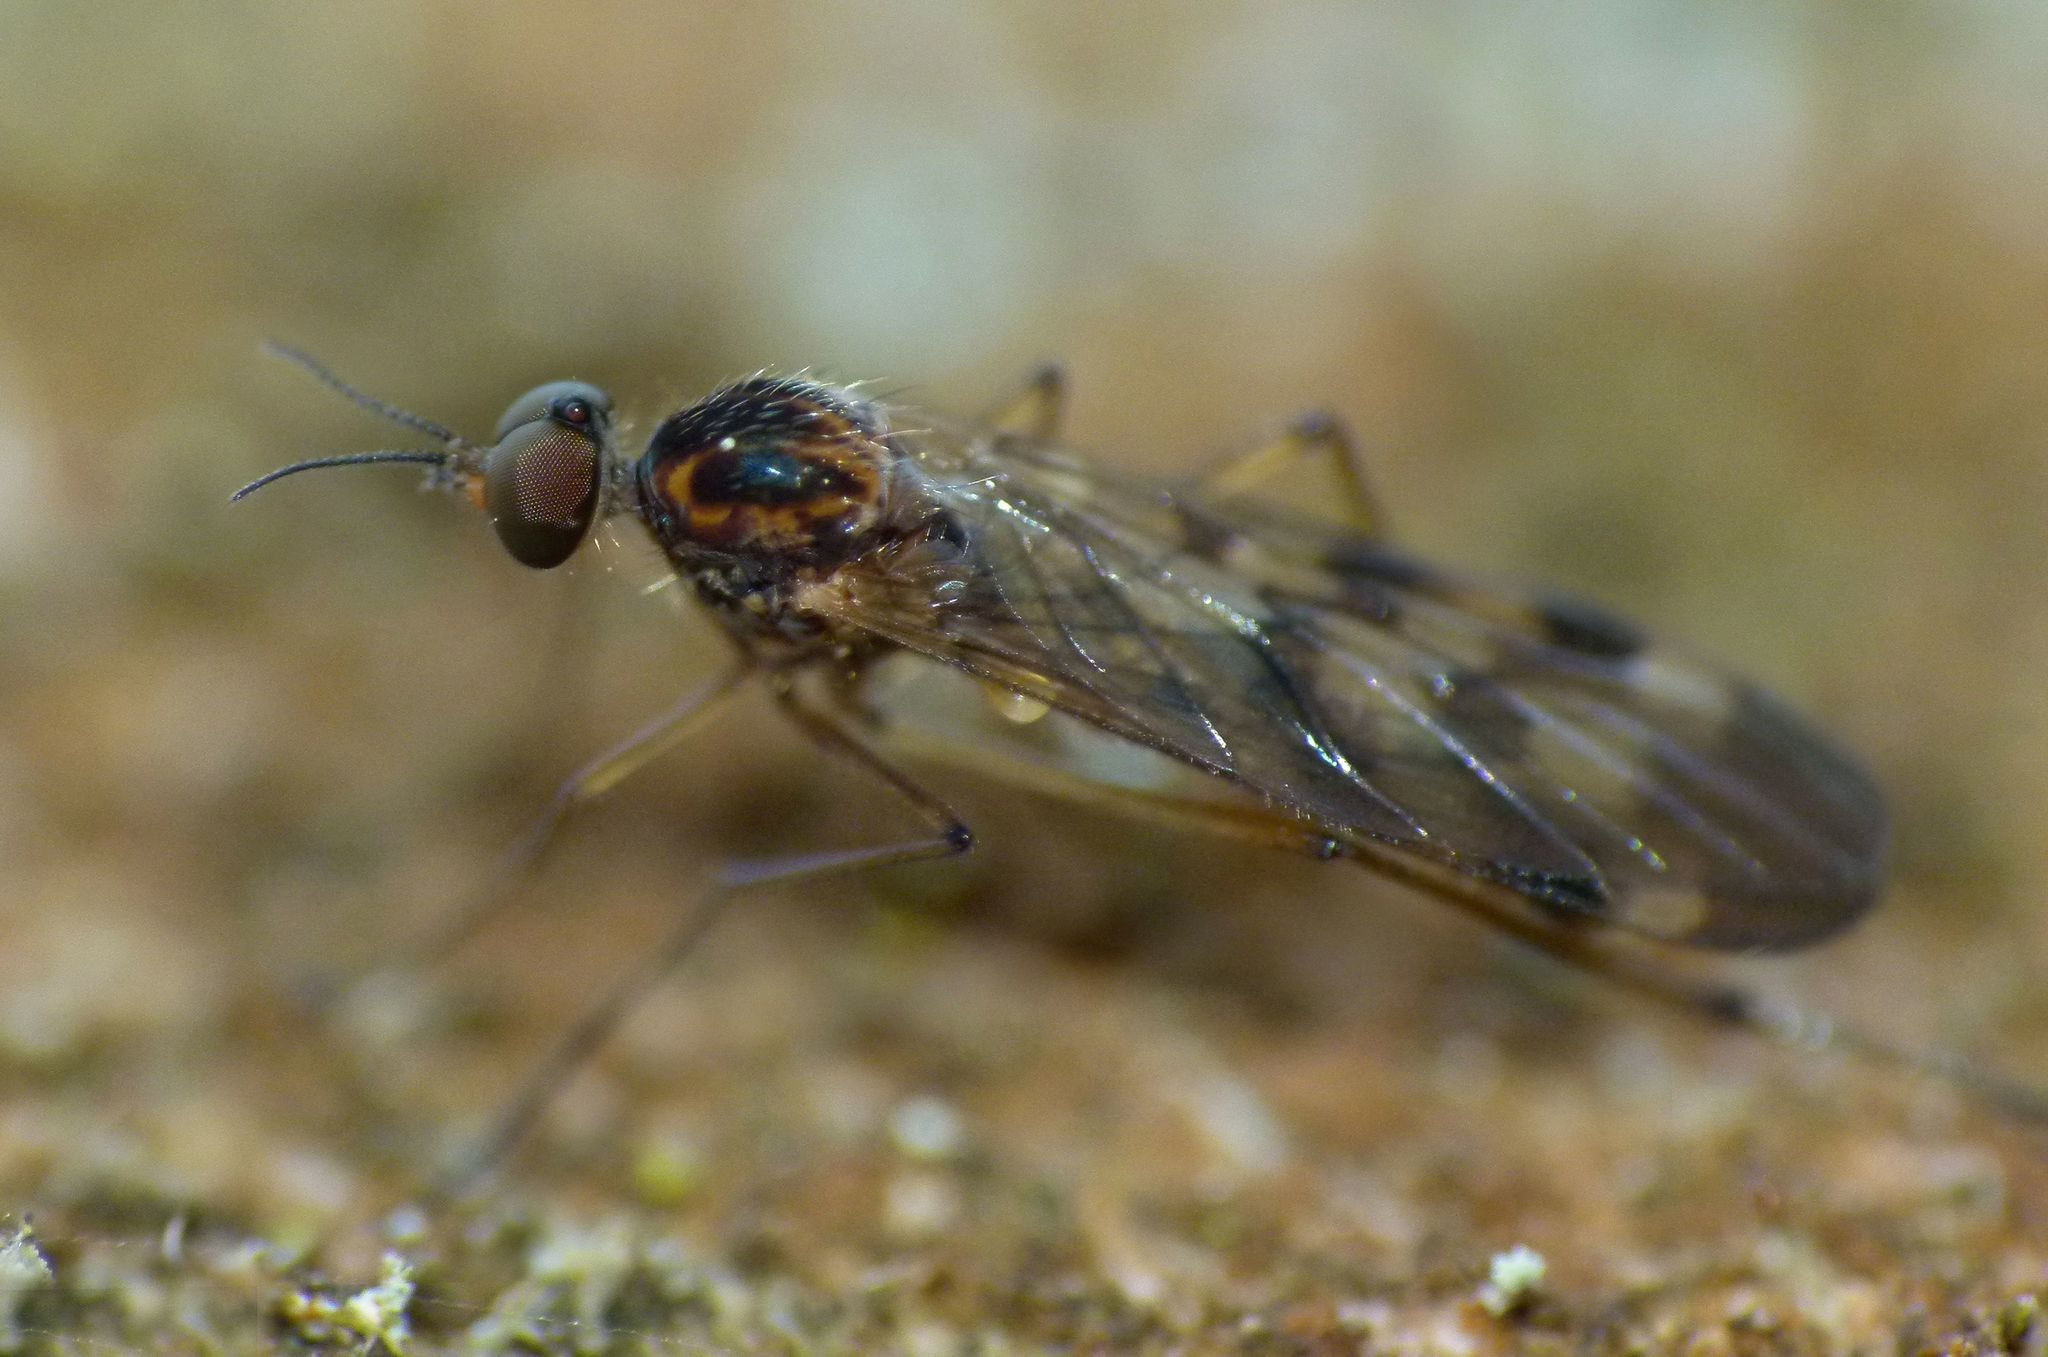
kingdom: Animalia
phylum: Arthropoda
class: Insecta
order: Diptera
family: Anisopodidae
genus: Sylvicola
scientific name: Sylvicola undulatus
